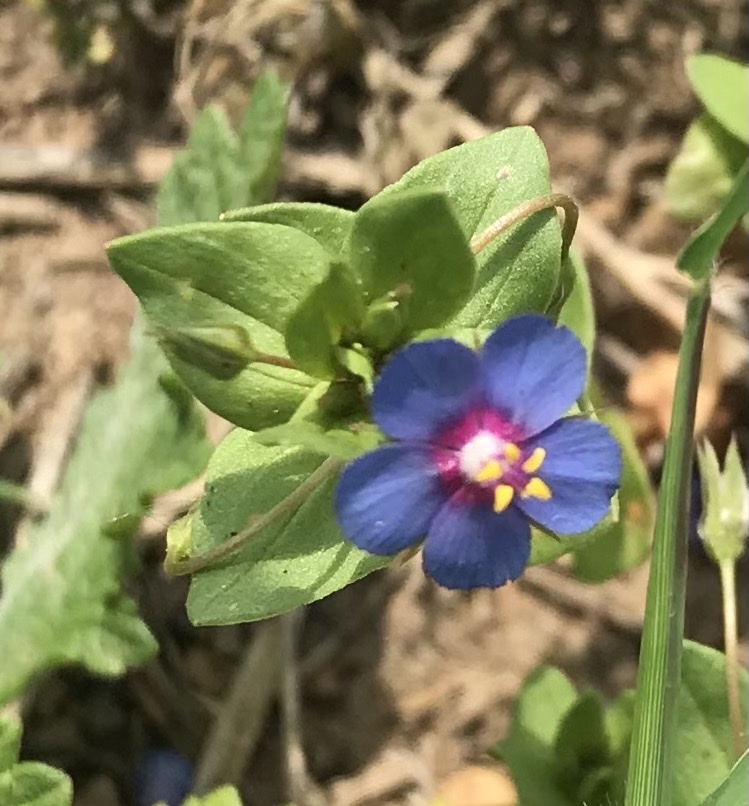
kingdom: Plantae
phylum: Tracheophyta
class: Magnoliopsida
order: Ericales
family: Primulaceae
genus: Lysimachia
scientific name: Lysimachia arvensis
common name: Scarlet pimpernel
